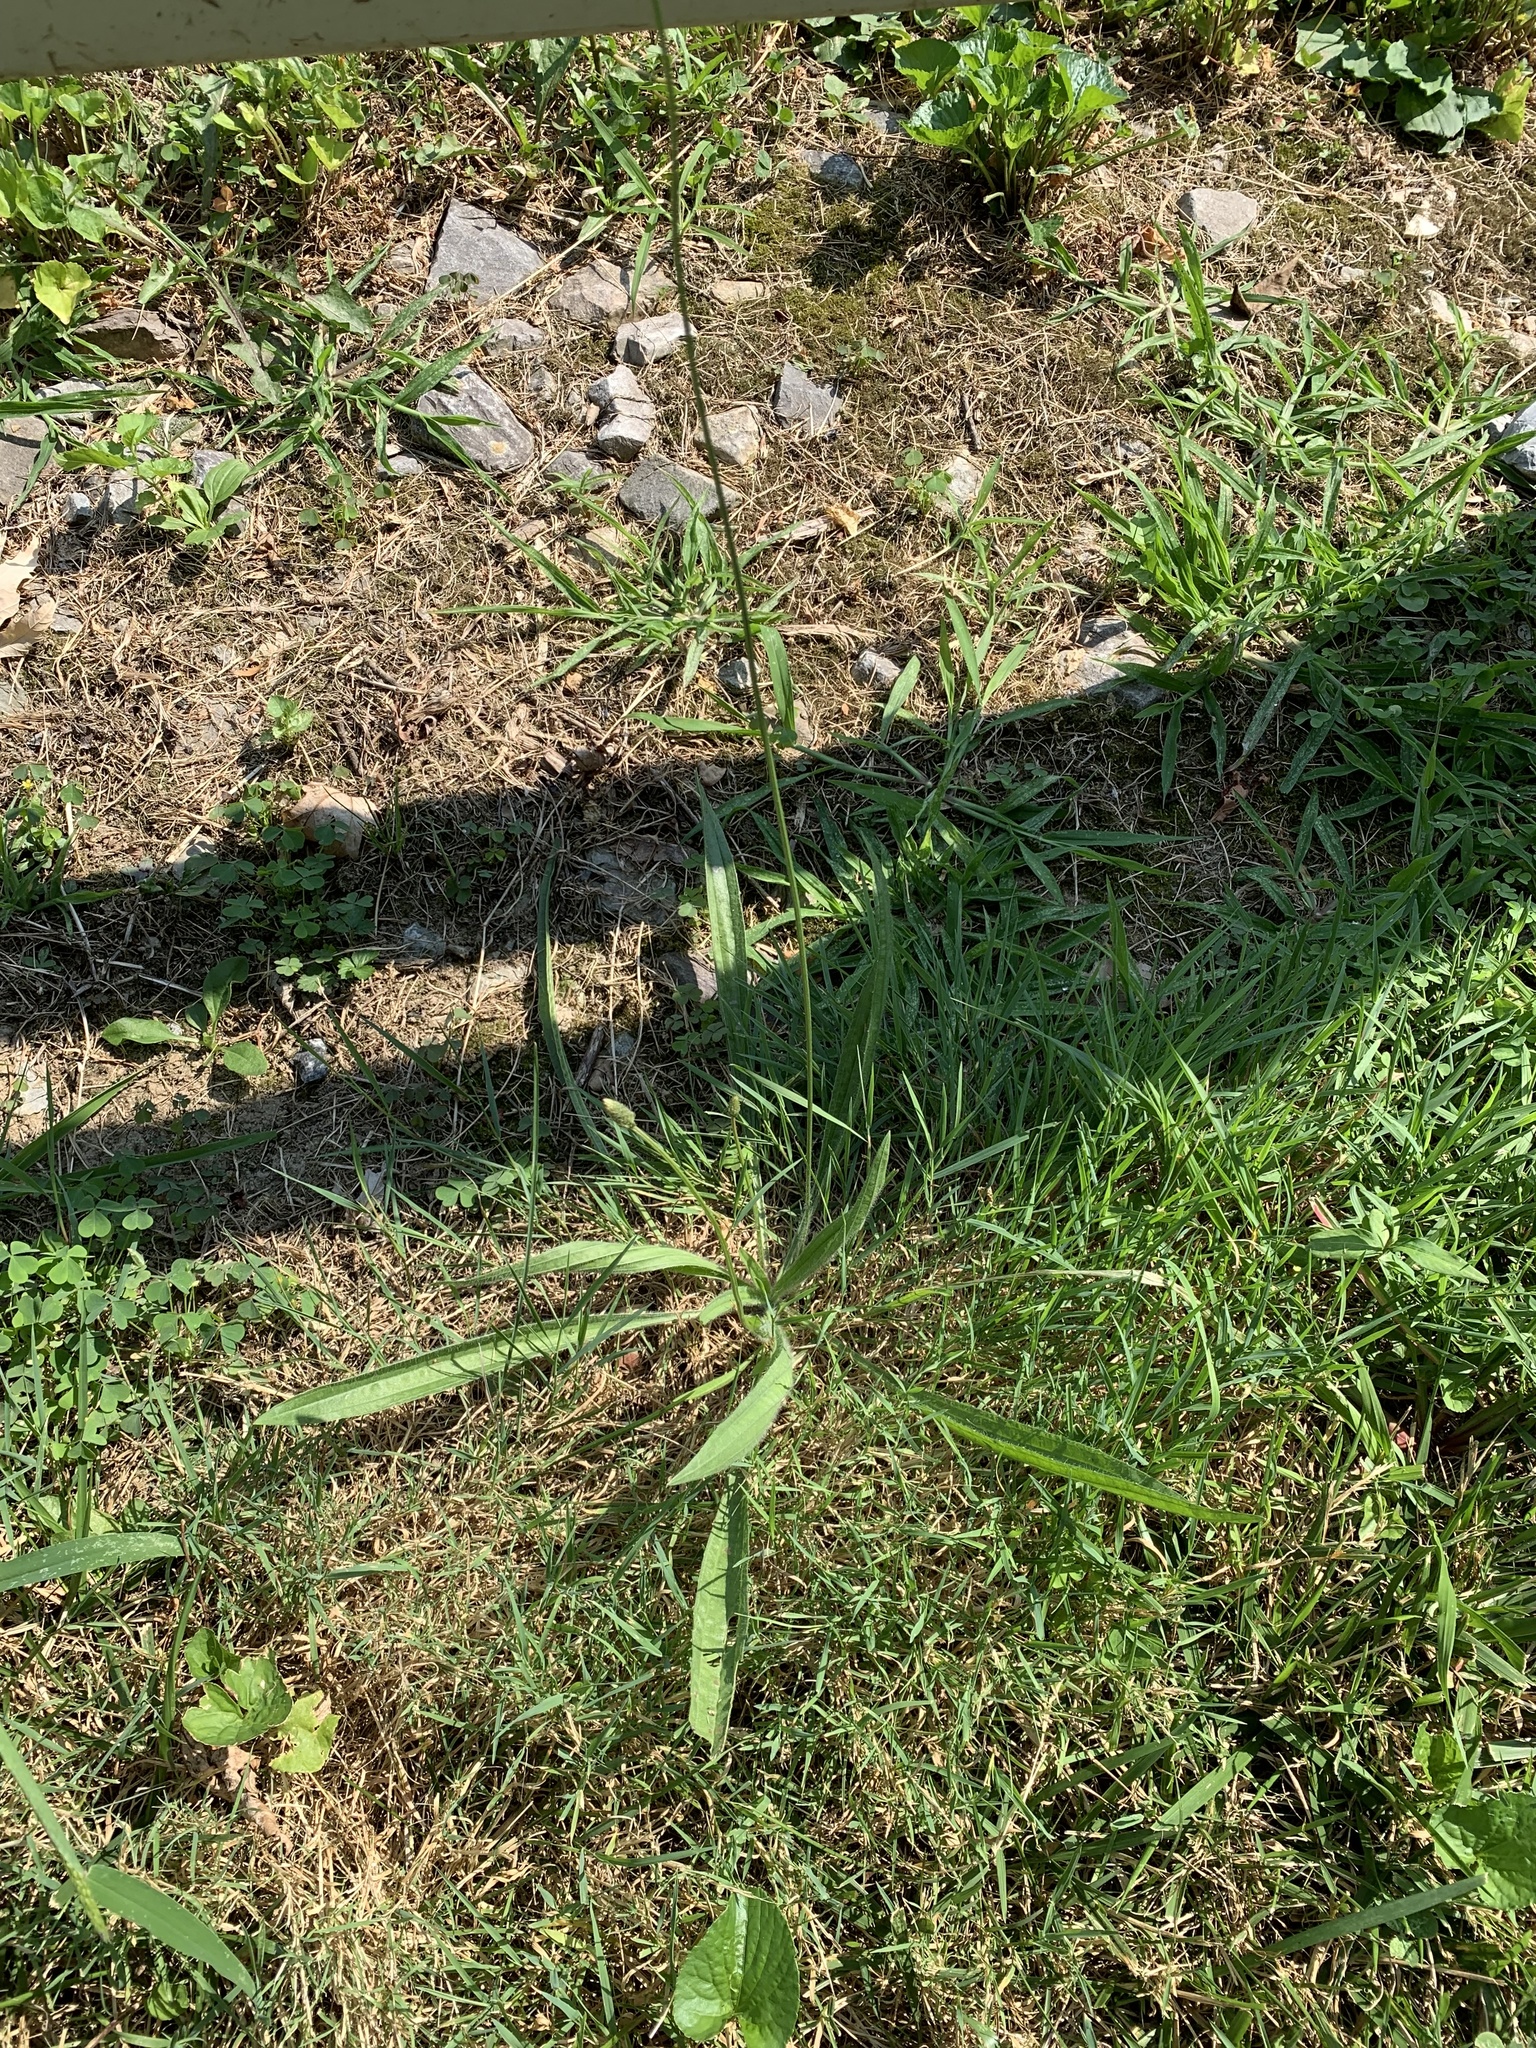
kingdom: Plantae
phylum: Tracheophyta
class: Magnoliopsida
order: Lamiales
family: Plantaginaceae
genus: Plantago
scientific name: Plantago lanceolata
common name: Ribwort plantain
